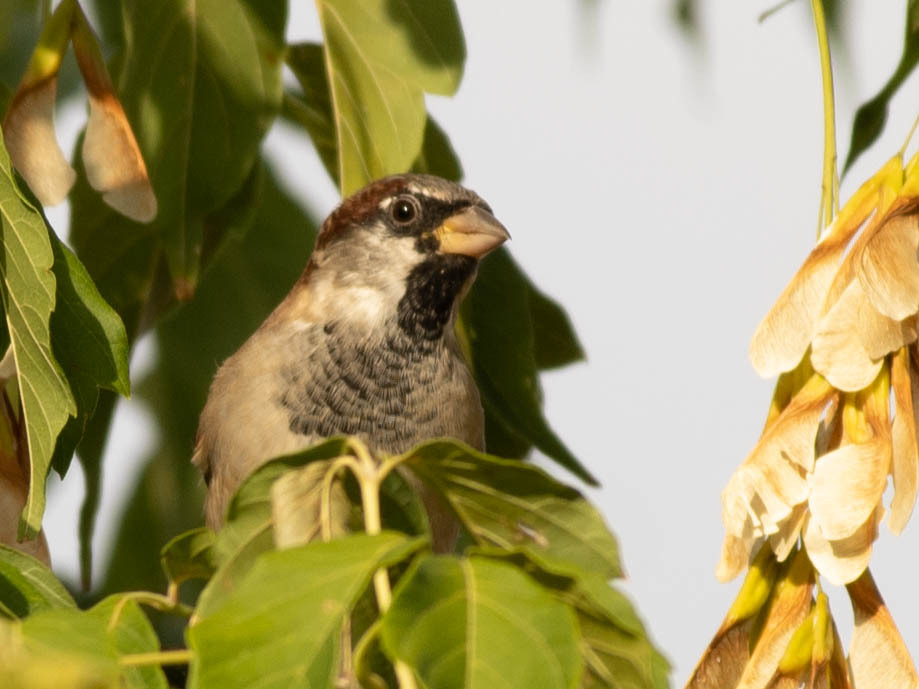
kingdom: Animalia
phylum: Chordata
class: Aves
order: Passeriformes
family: Passeridae
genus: Passer
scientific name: Passer domesticus
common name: House sparrow
